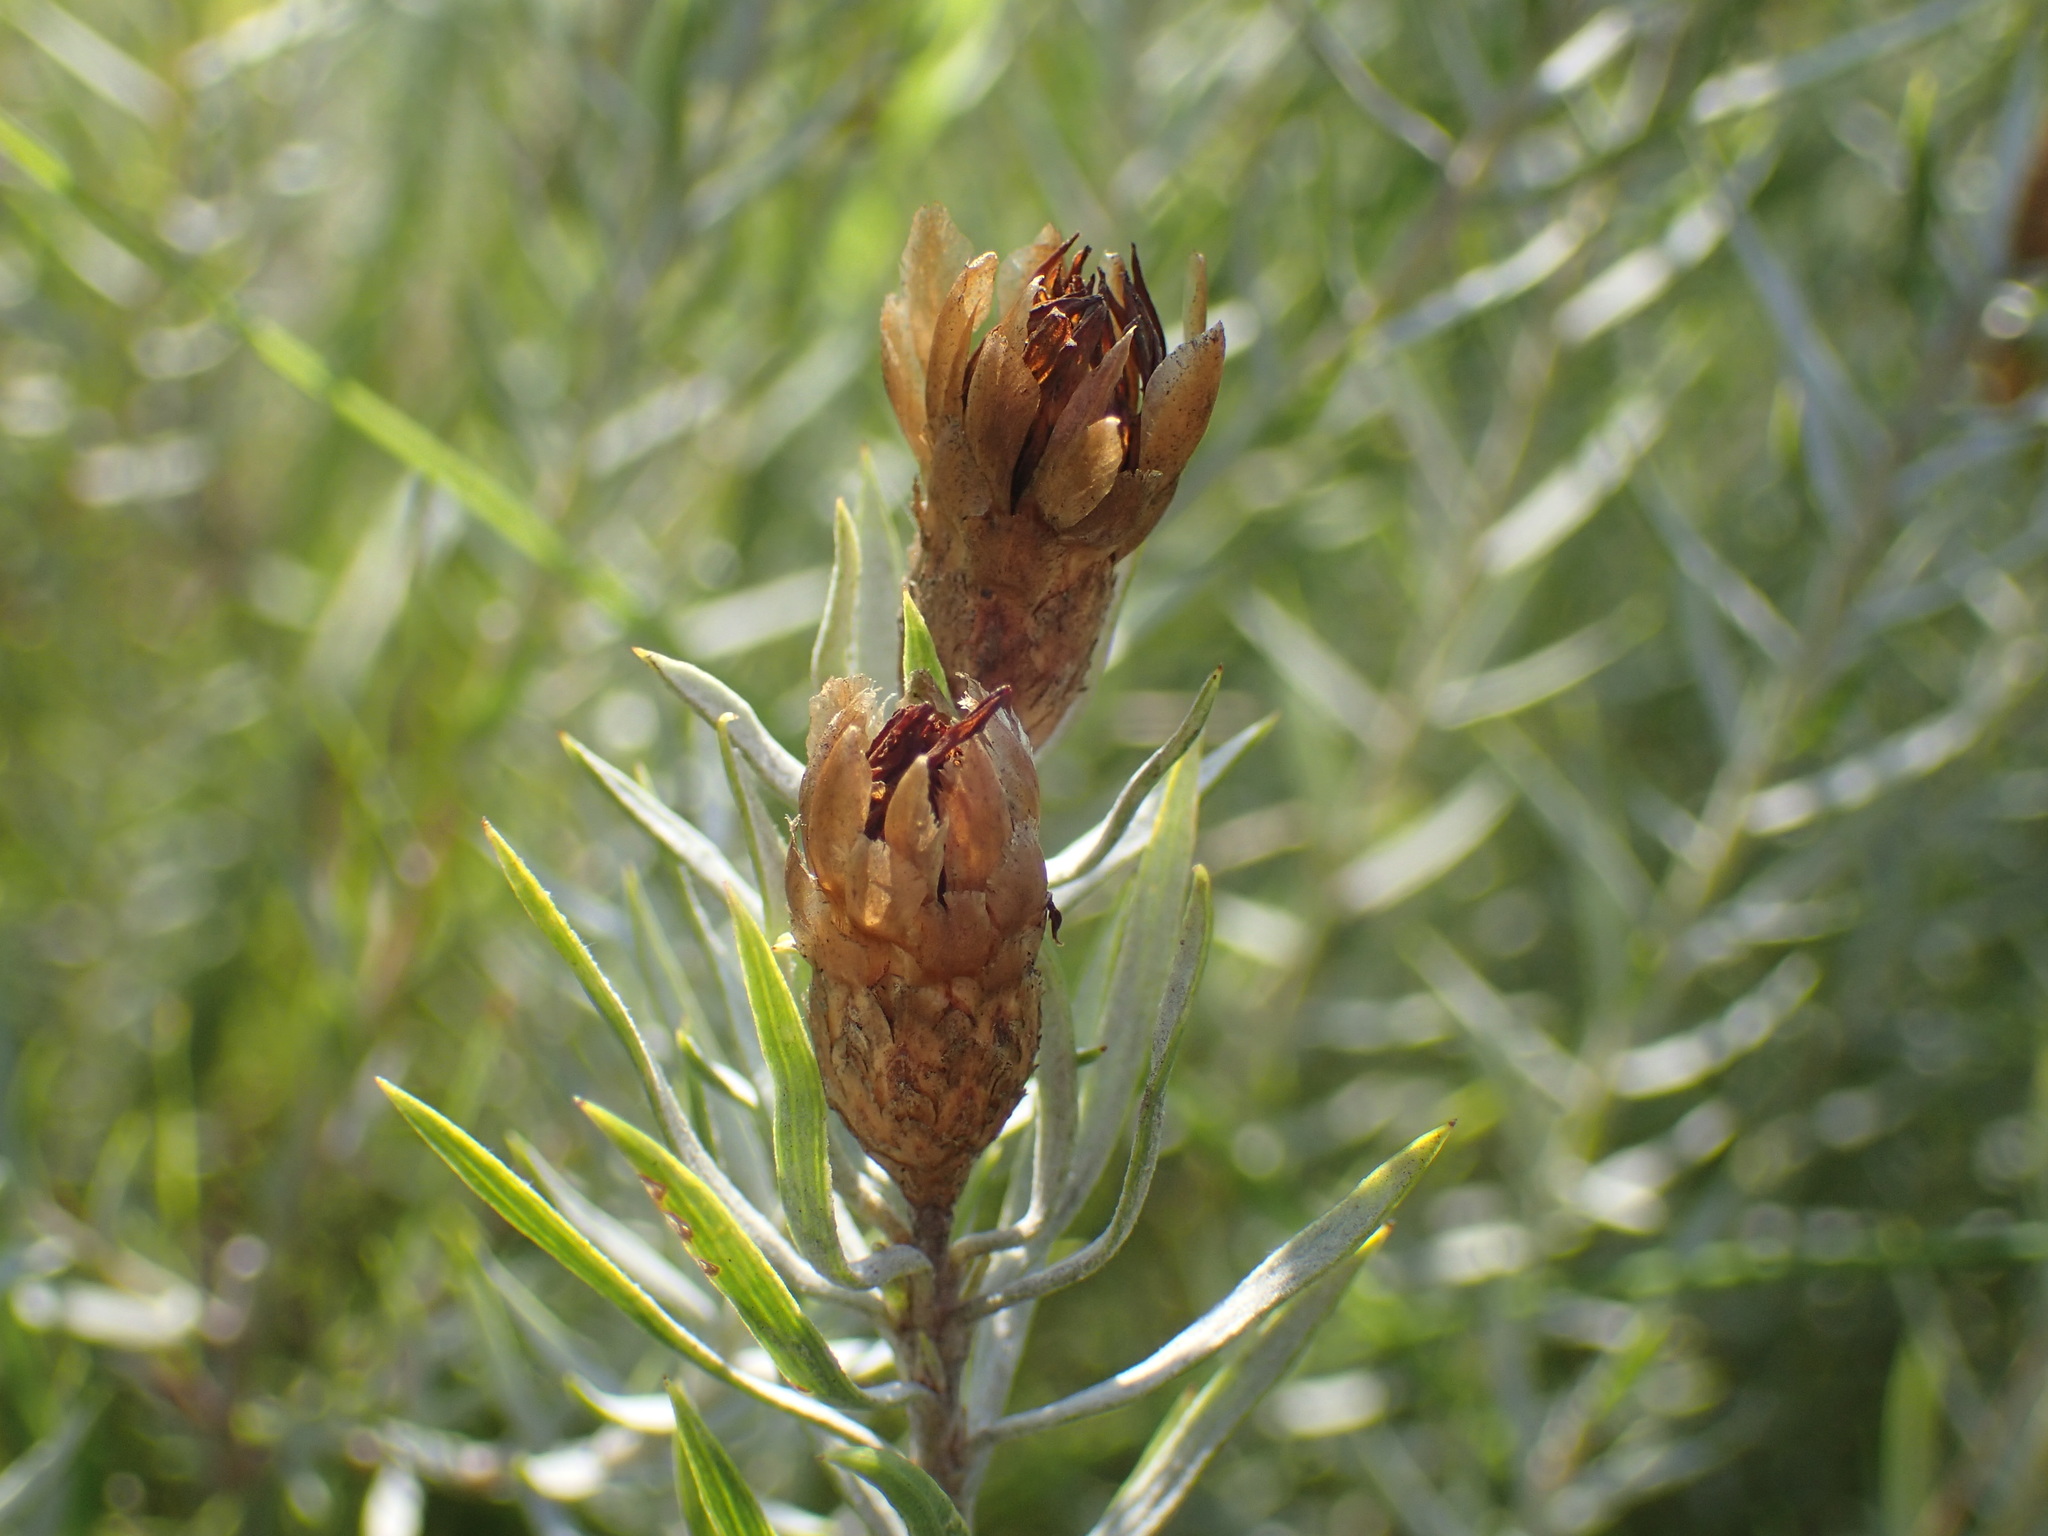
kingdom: Plantae
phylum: Tracheophyta
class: Magnoliopsida
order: Asterales
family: Asteraceae
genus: Oedera
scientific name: Oedera pungens
